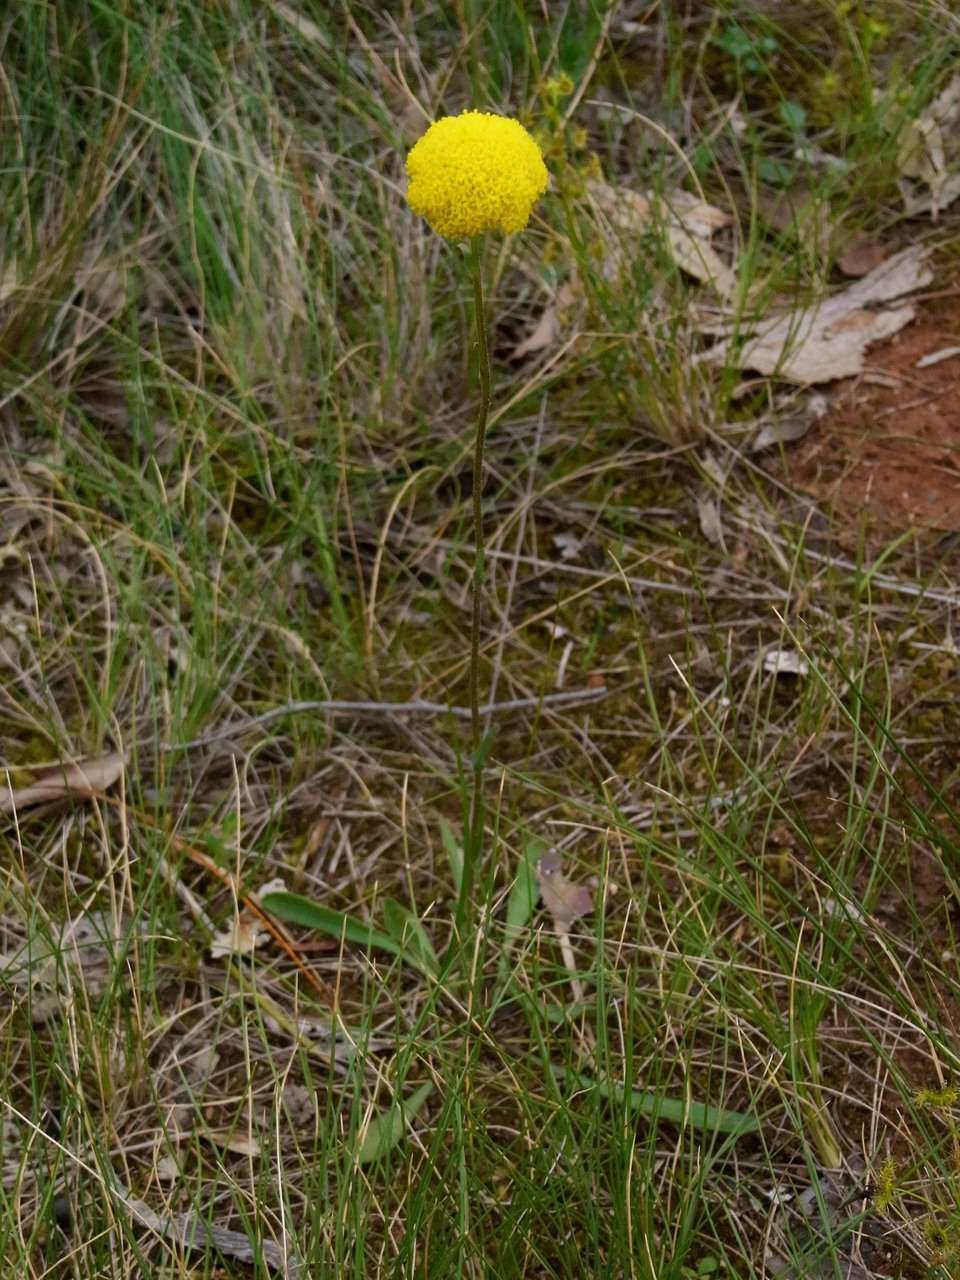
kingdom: Plantae
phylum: Tracheophyta
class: Magnoliopsida
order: Asterales
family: Asteraceae
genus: Craspedia
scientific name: Craspedia variabilis
